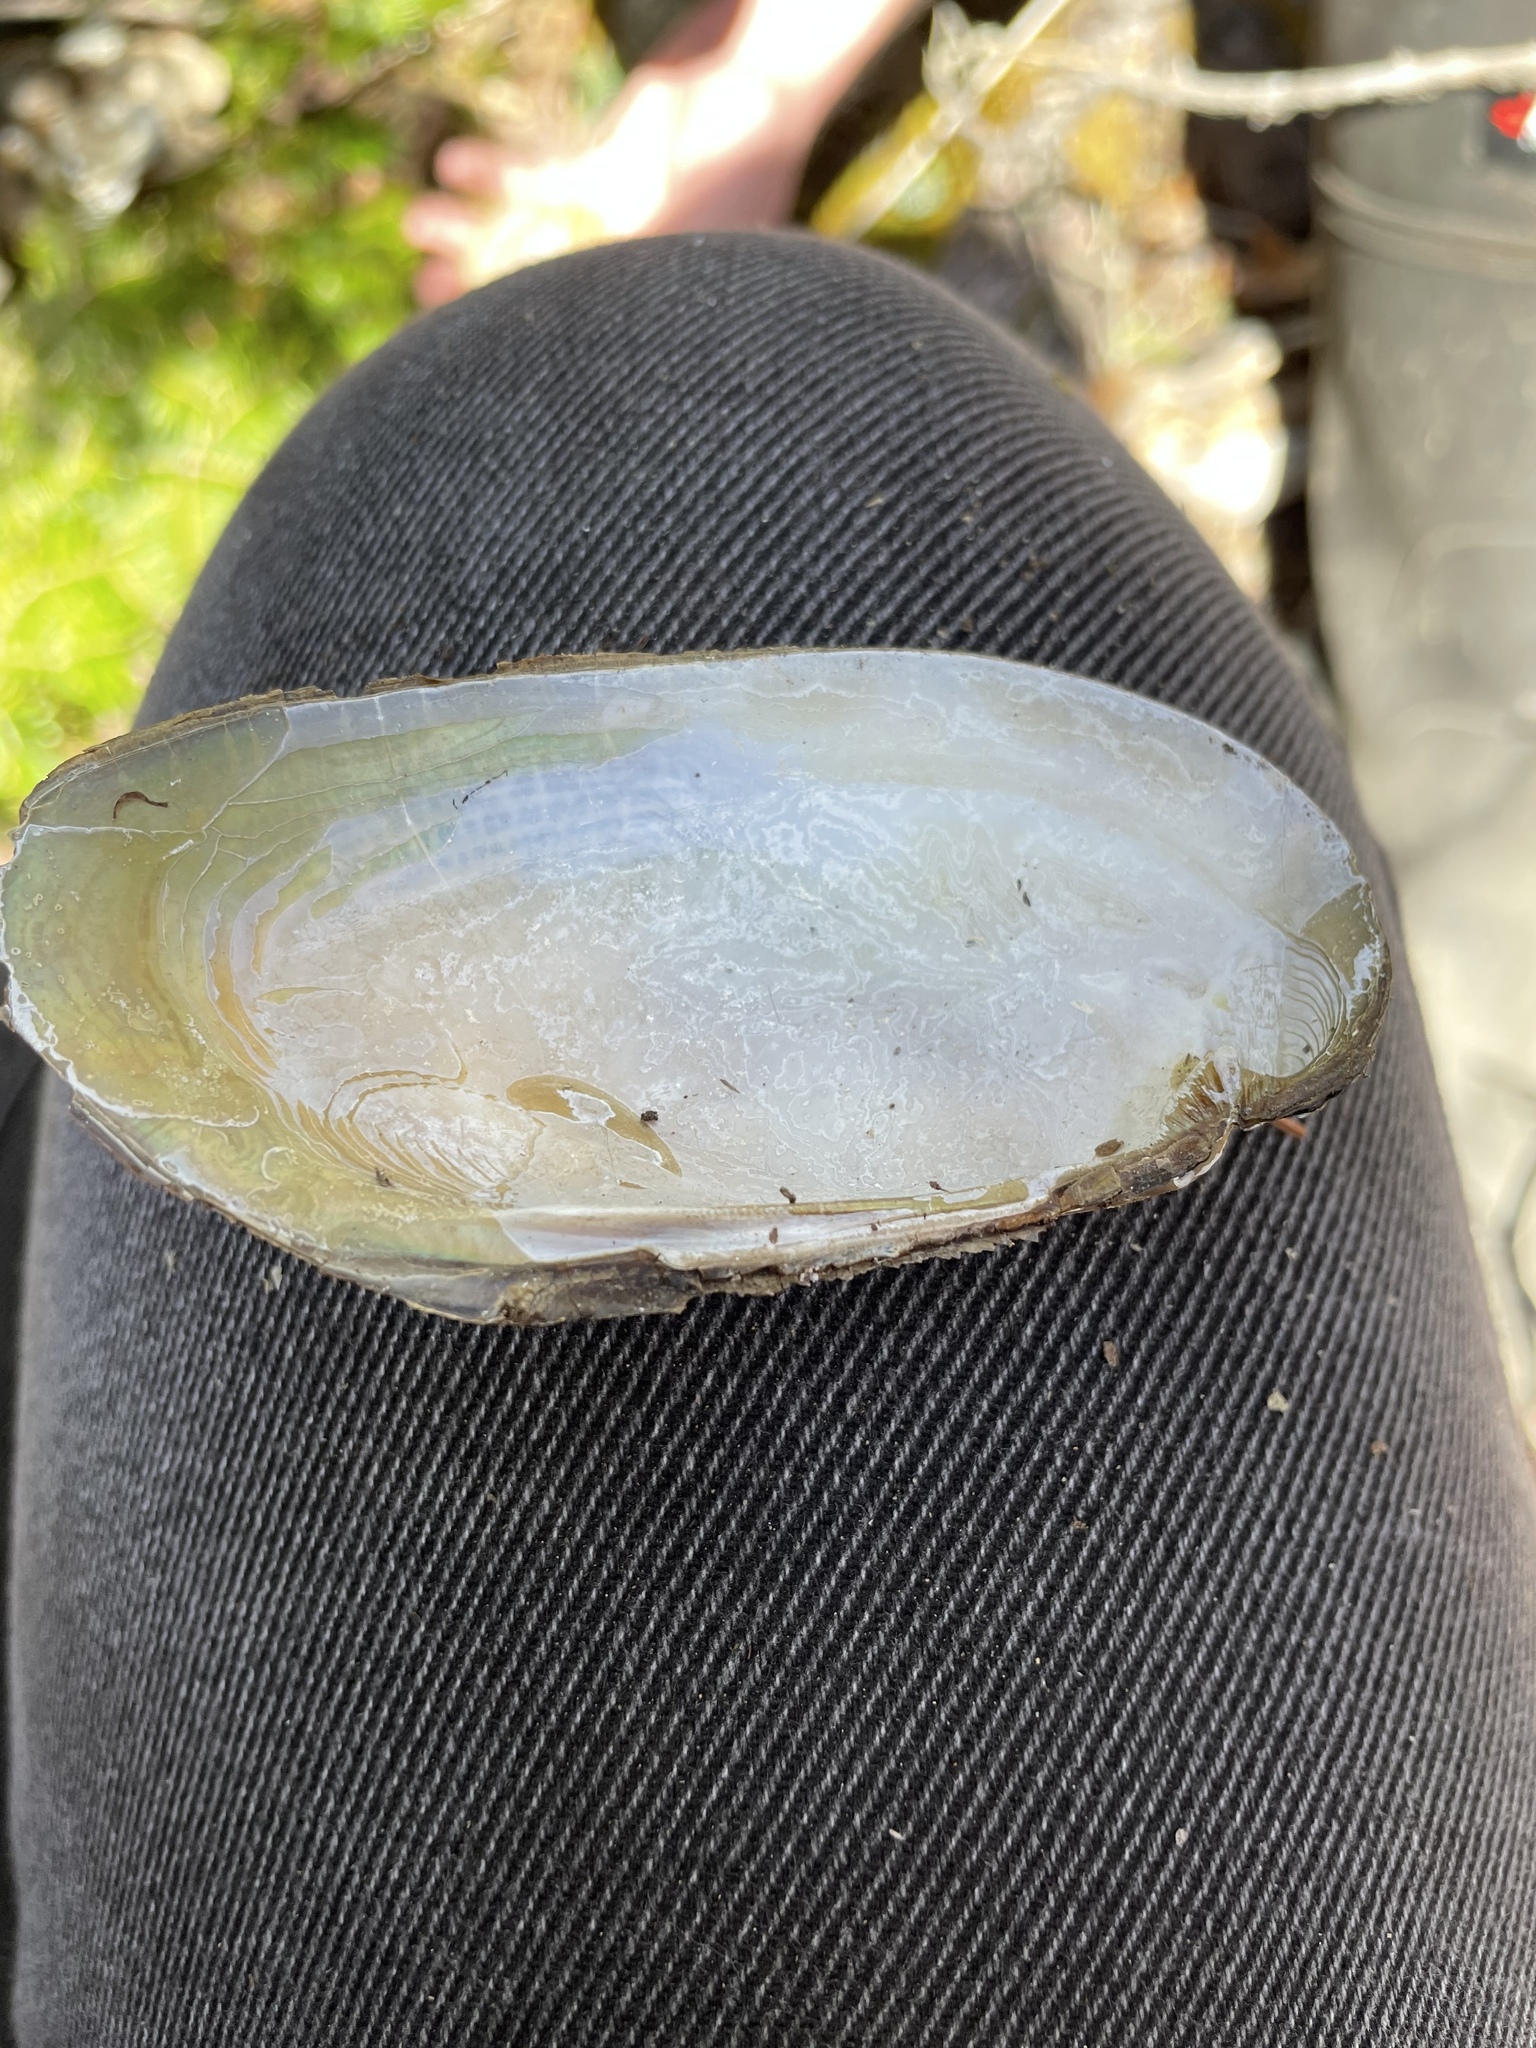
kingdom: Animalia
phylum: Mollusca
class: Bivalvia
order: Unionida
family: Unionidae
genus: Elliptio
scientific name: Elliptio complanata
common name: Eastern elliptio
